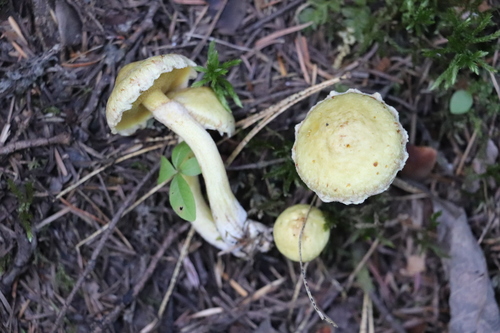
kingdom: Fungi
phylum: Basidiomycota
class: Agaricomycetes
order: Boletales
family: Suillaceae
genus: Suillus
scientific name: Suillus americanus
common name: Chicken fat mushroom
